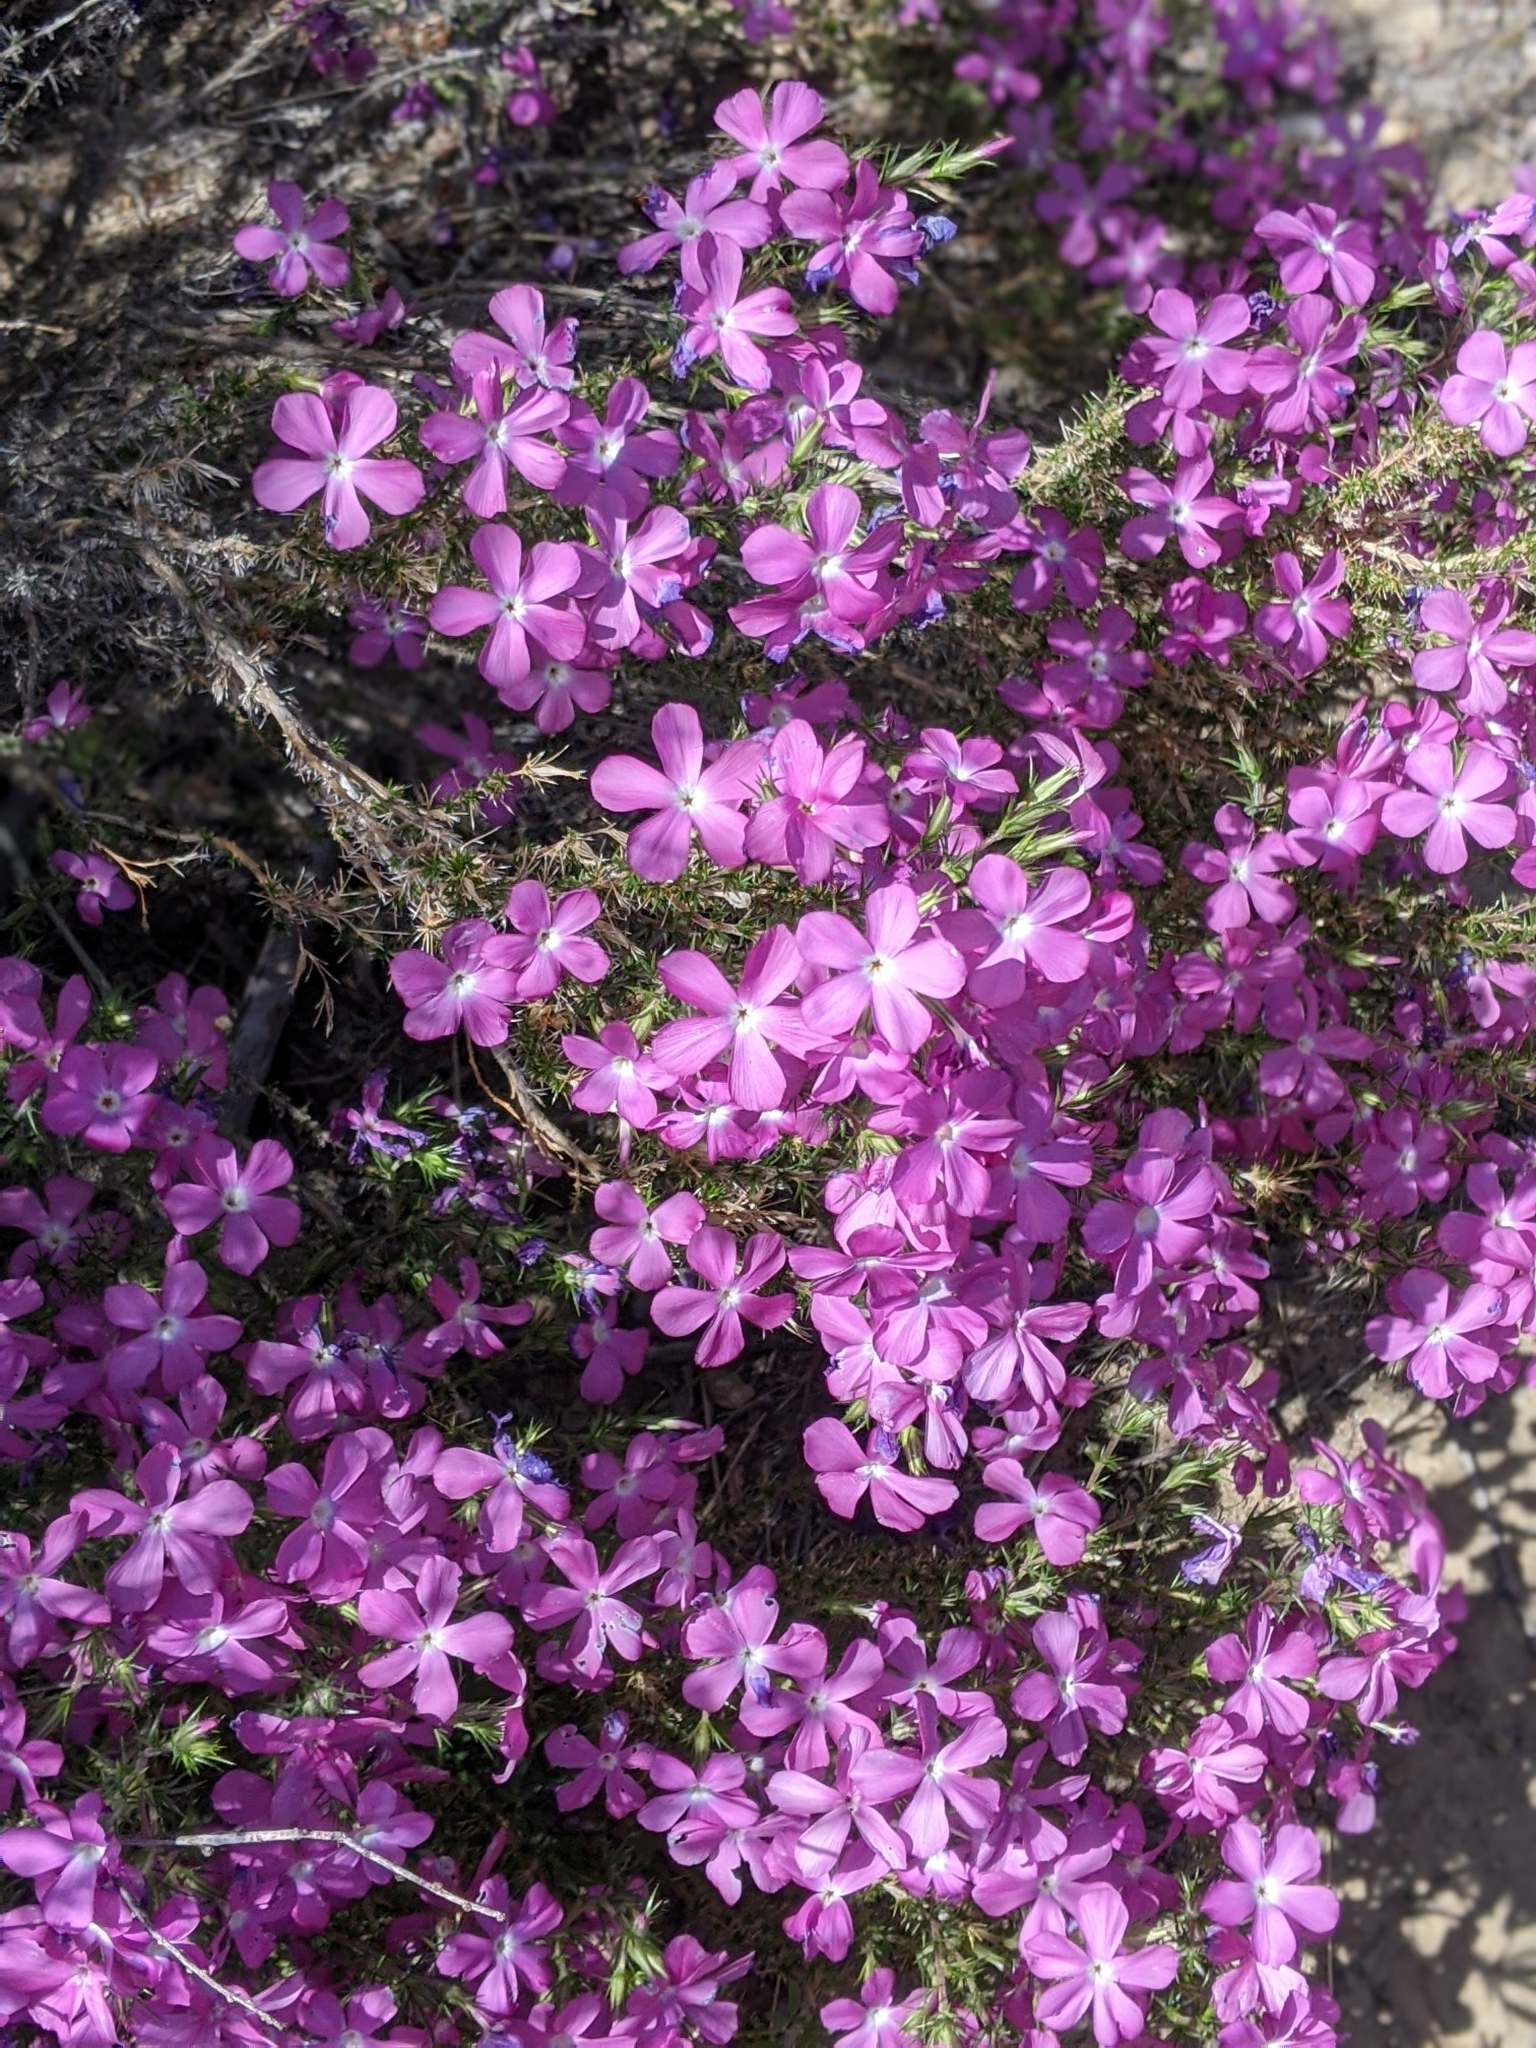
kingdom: Plantae
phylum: Tracheophyta
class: Magnoliopsida
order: Ericales
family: Polemoniaceae
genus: Linanthus
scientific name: Linanthus californicus
